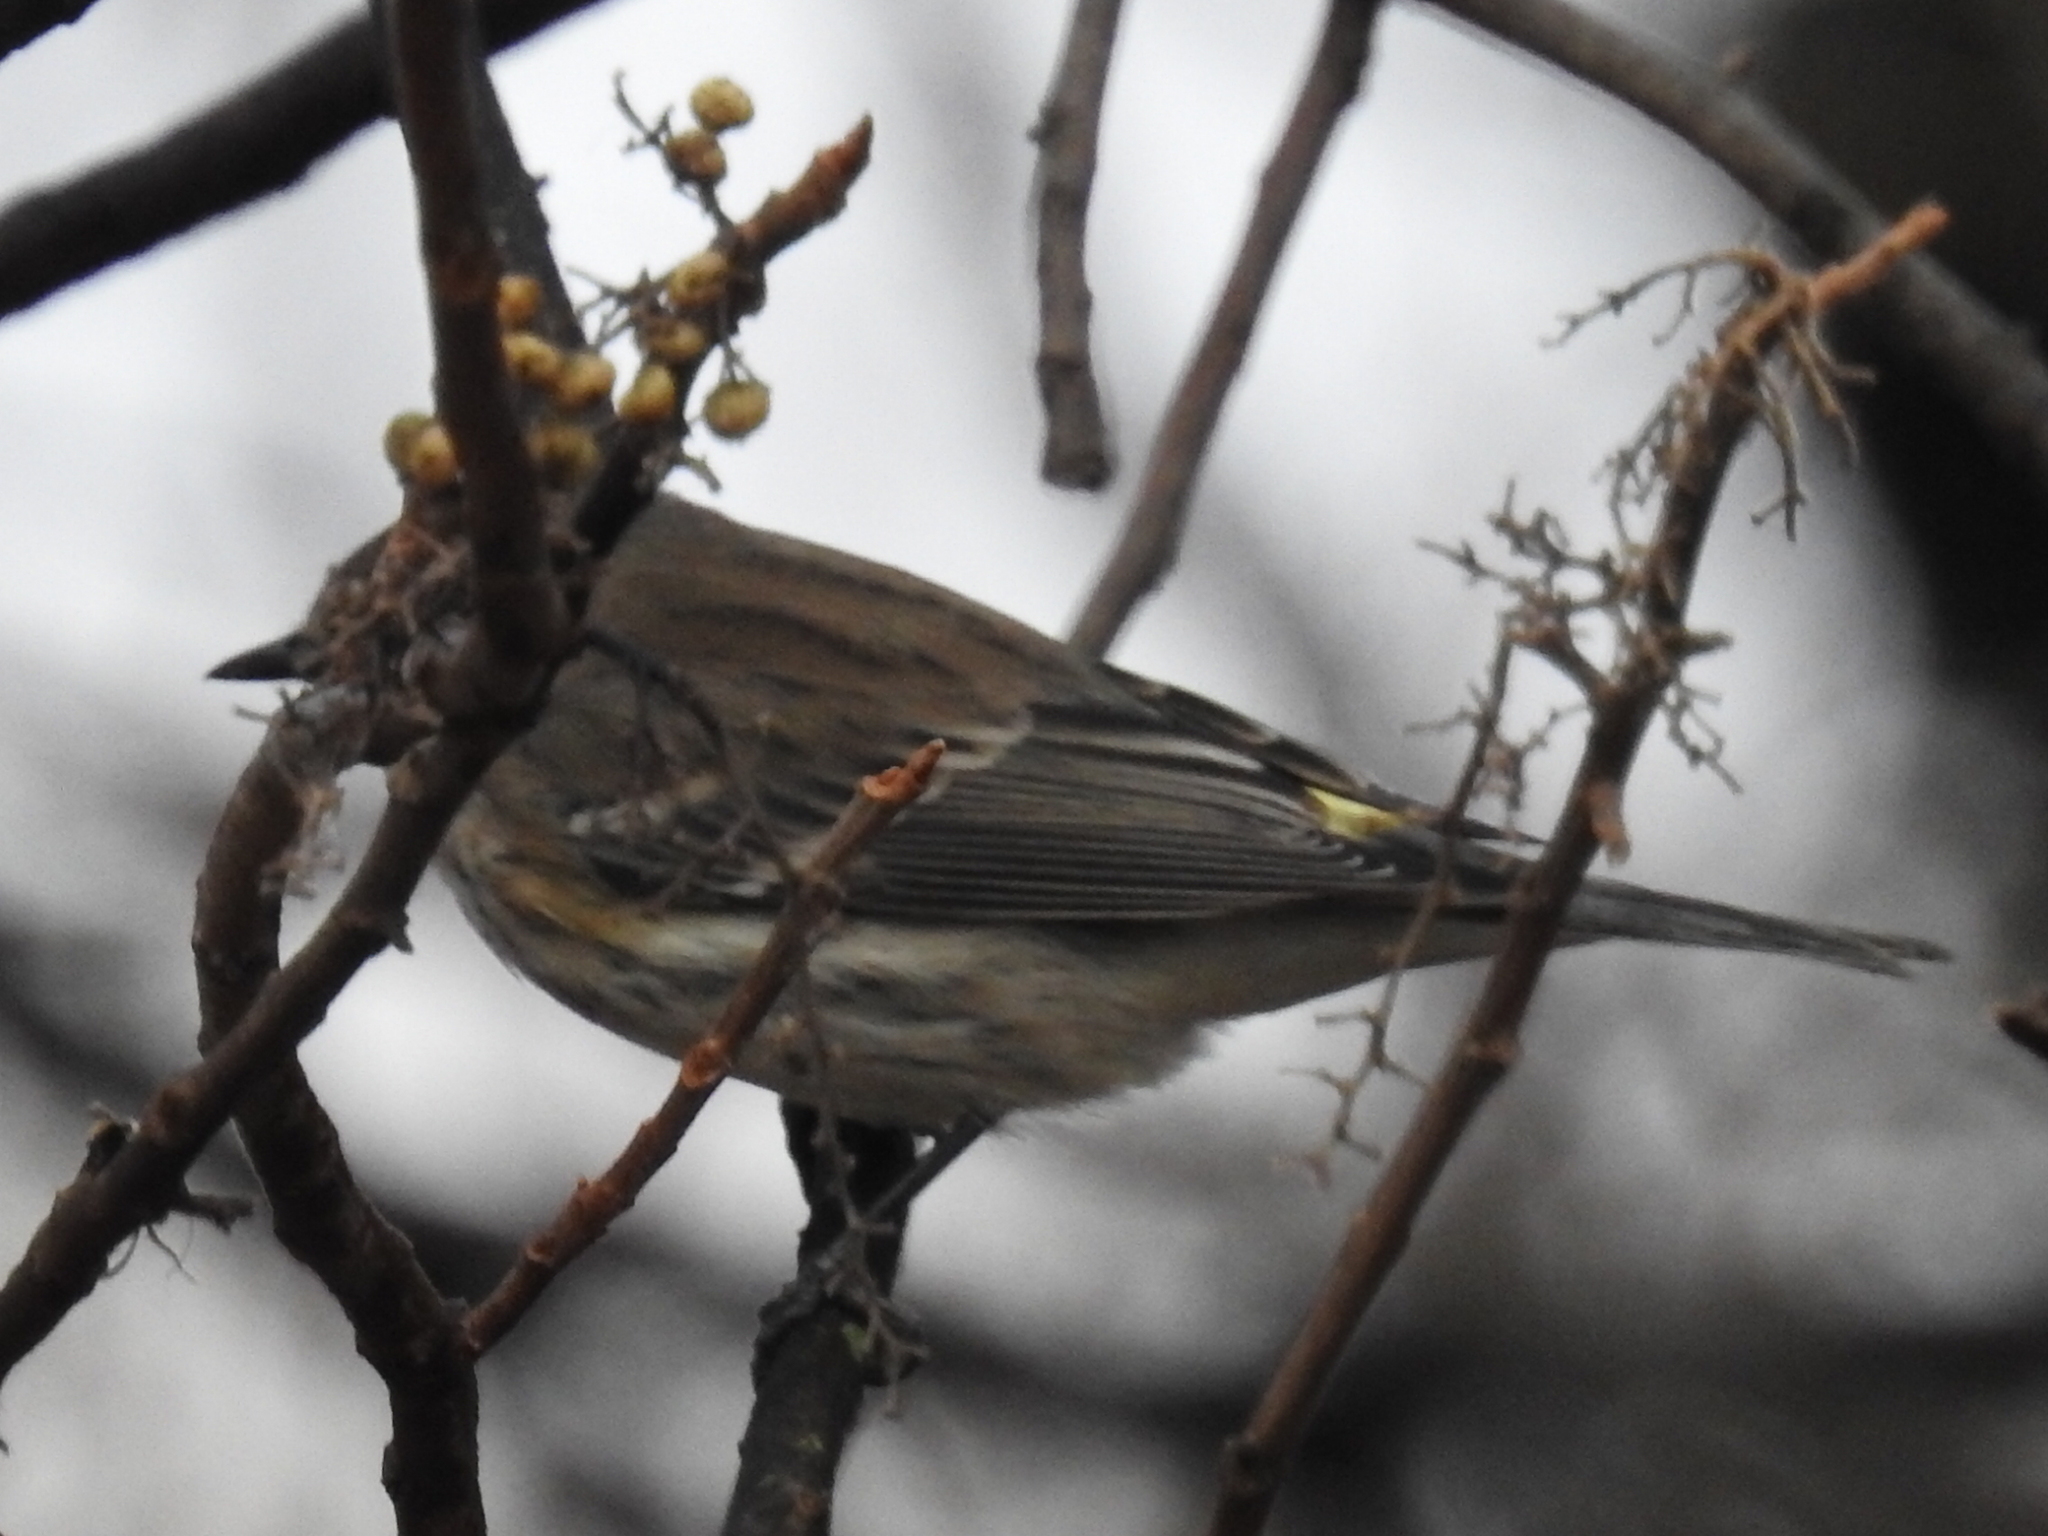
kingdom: Animalia
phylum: Chordata
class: Aves
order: Passeriformes
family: Parulidae
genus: Setophaga
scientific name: Setophaga coronata
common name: Myrtle warbler
